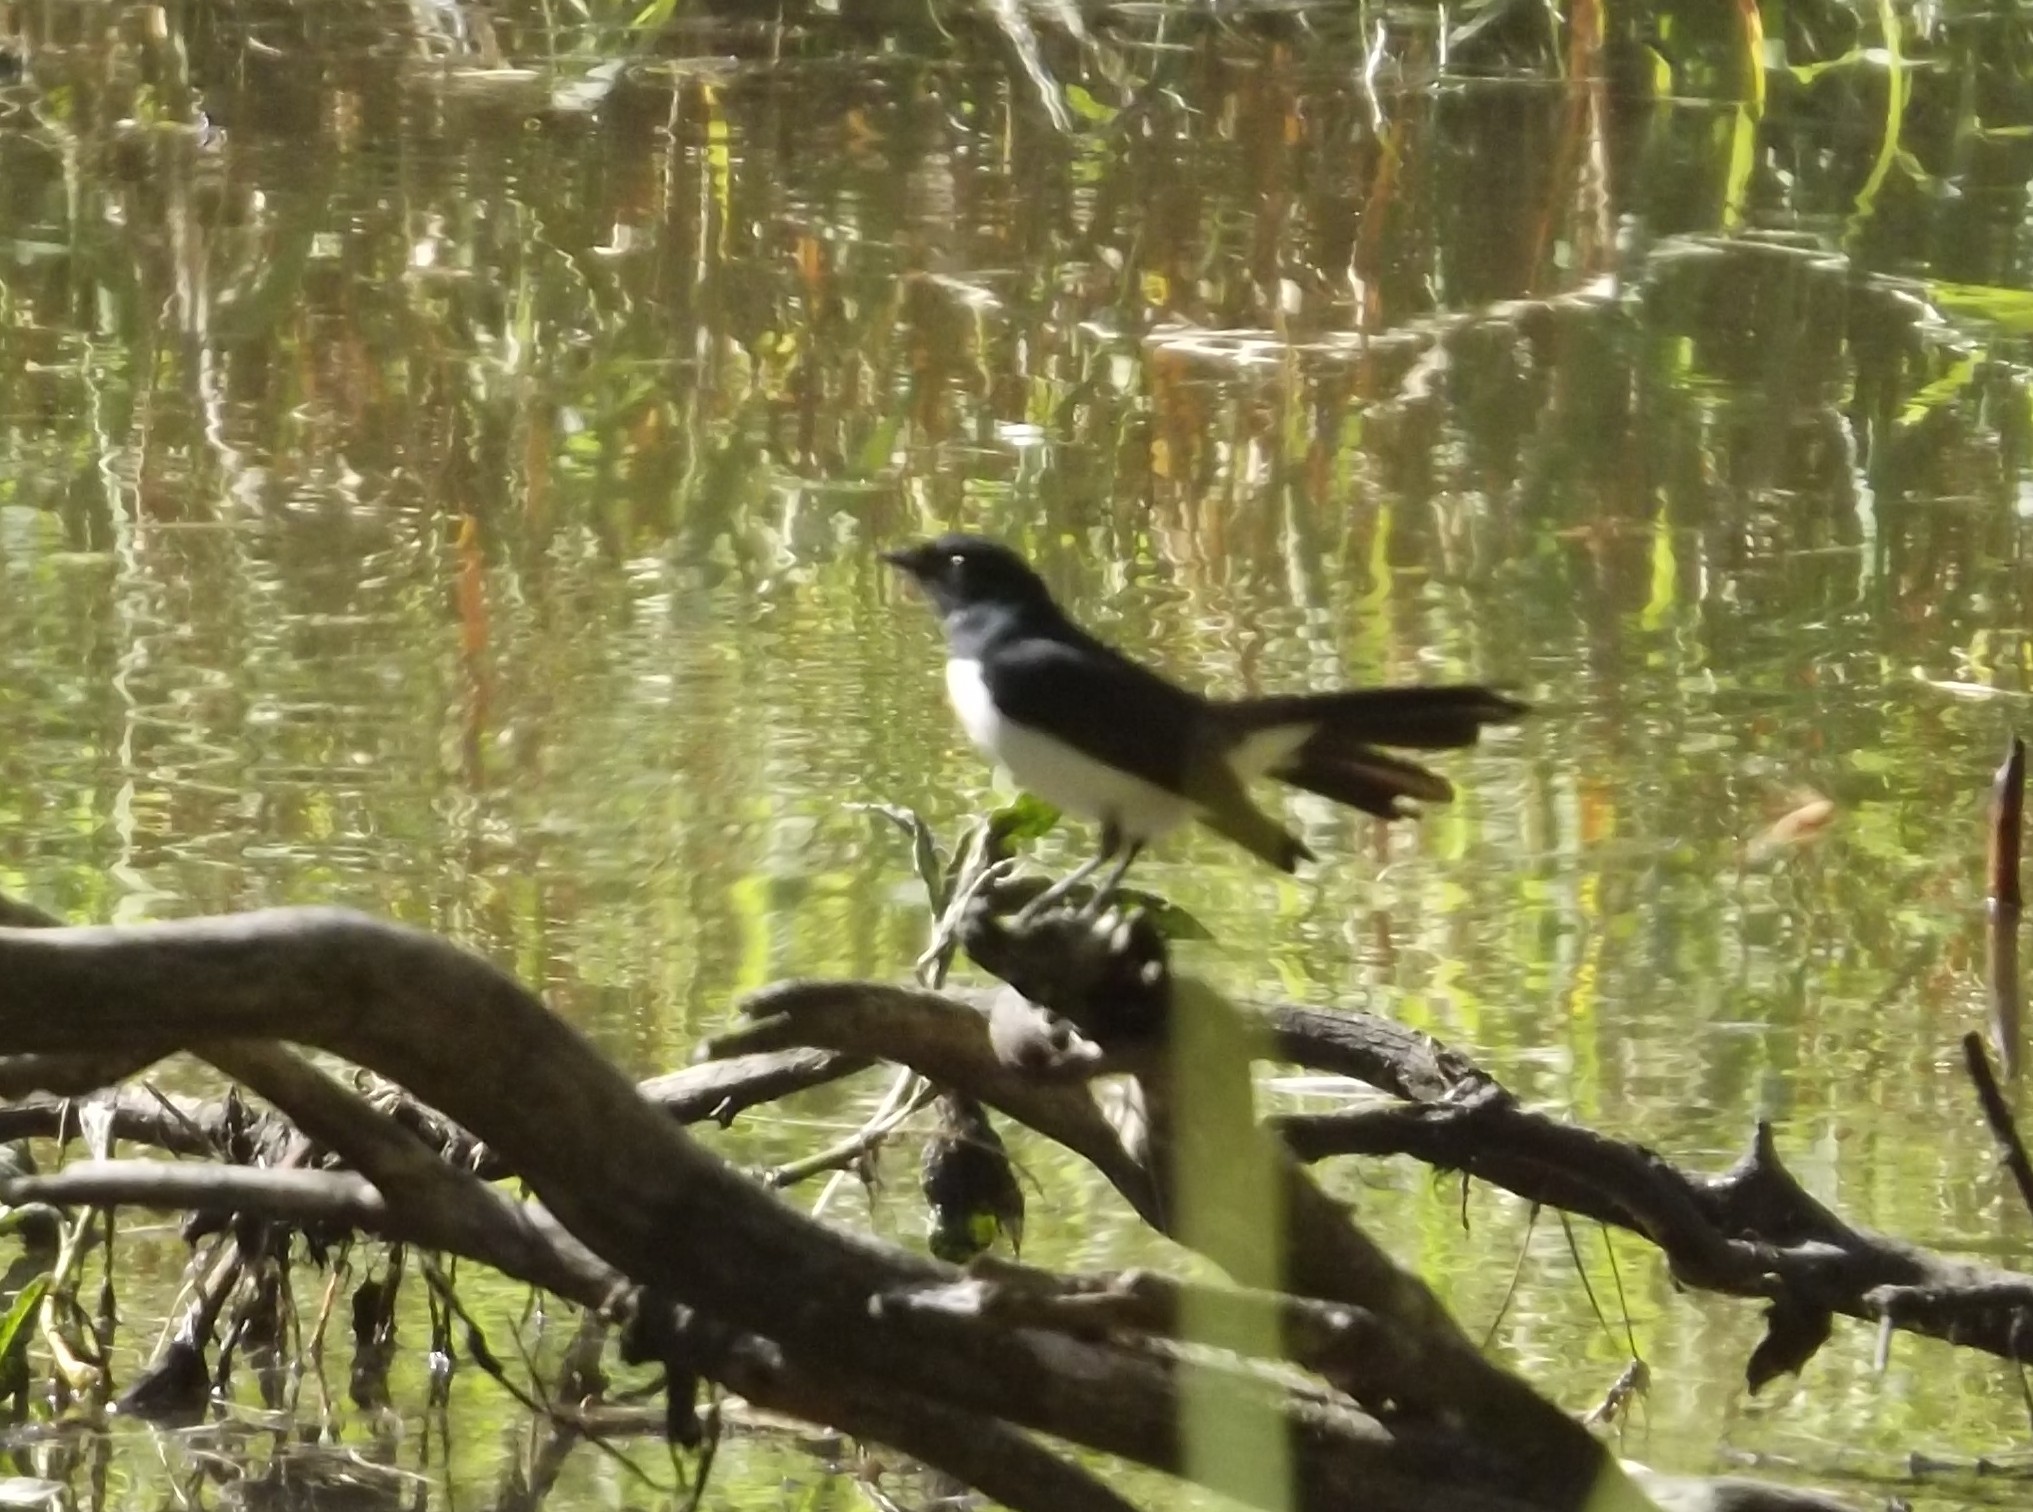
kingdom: Animalia
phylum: Chordata
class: Aves
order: Passeriformes
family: Rhipiduridae
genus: Rhipidura
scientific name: Rhipidura leucophrys
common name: Willie wagtail
